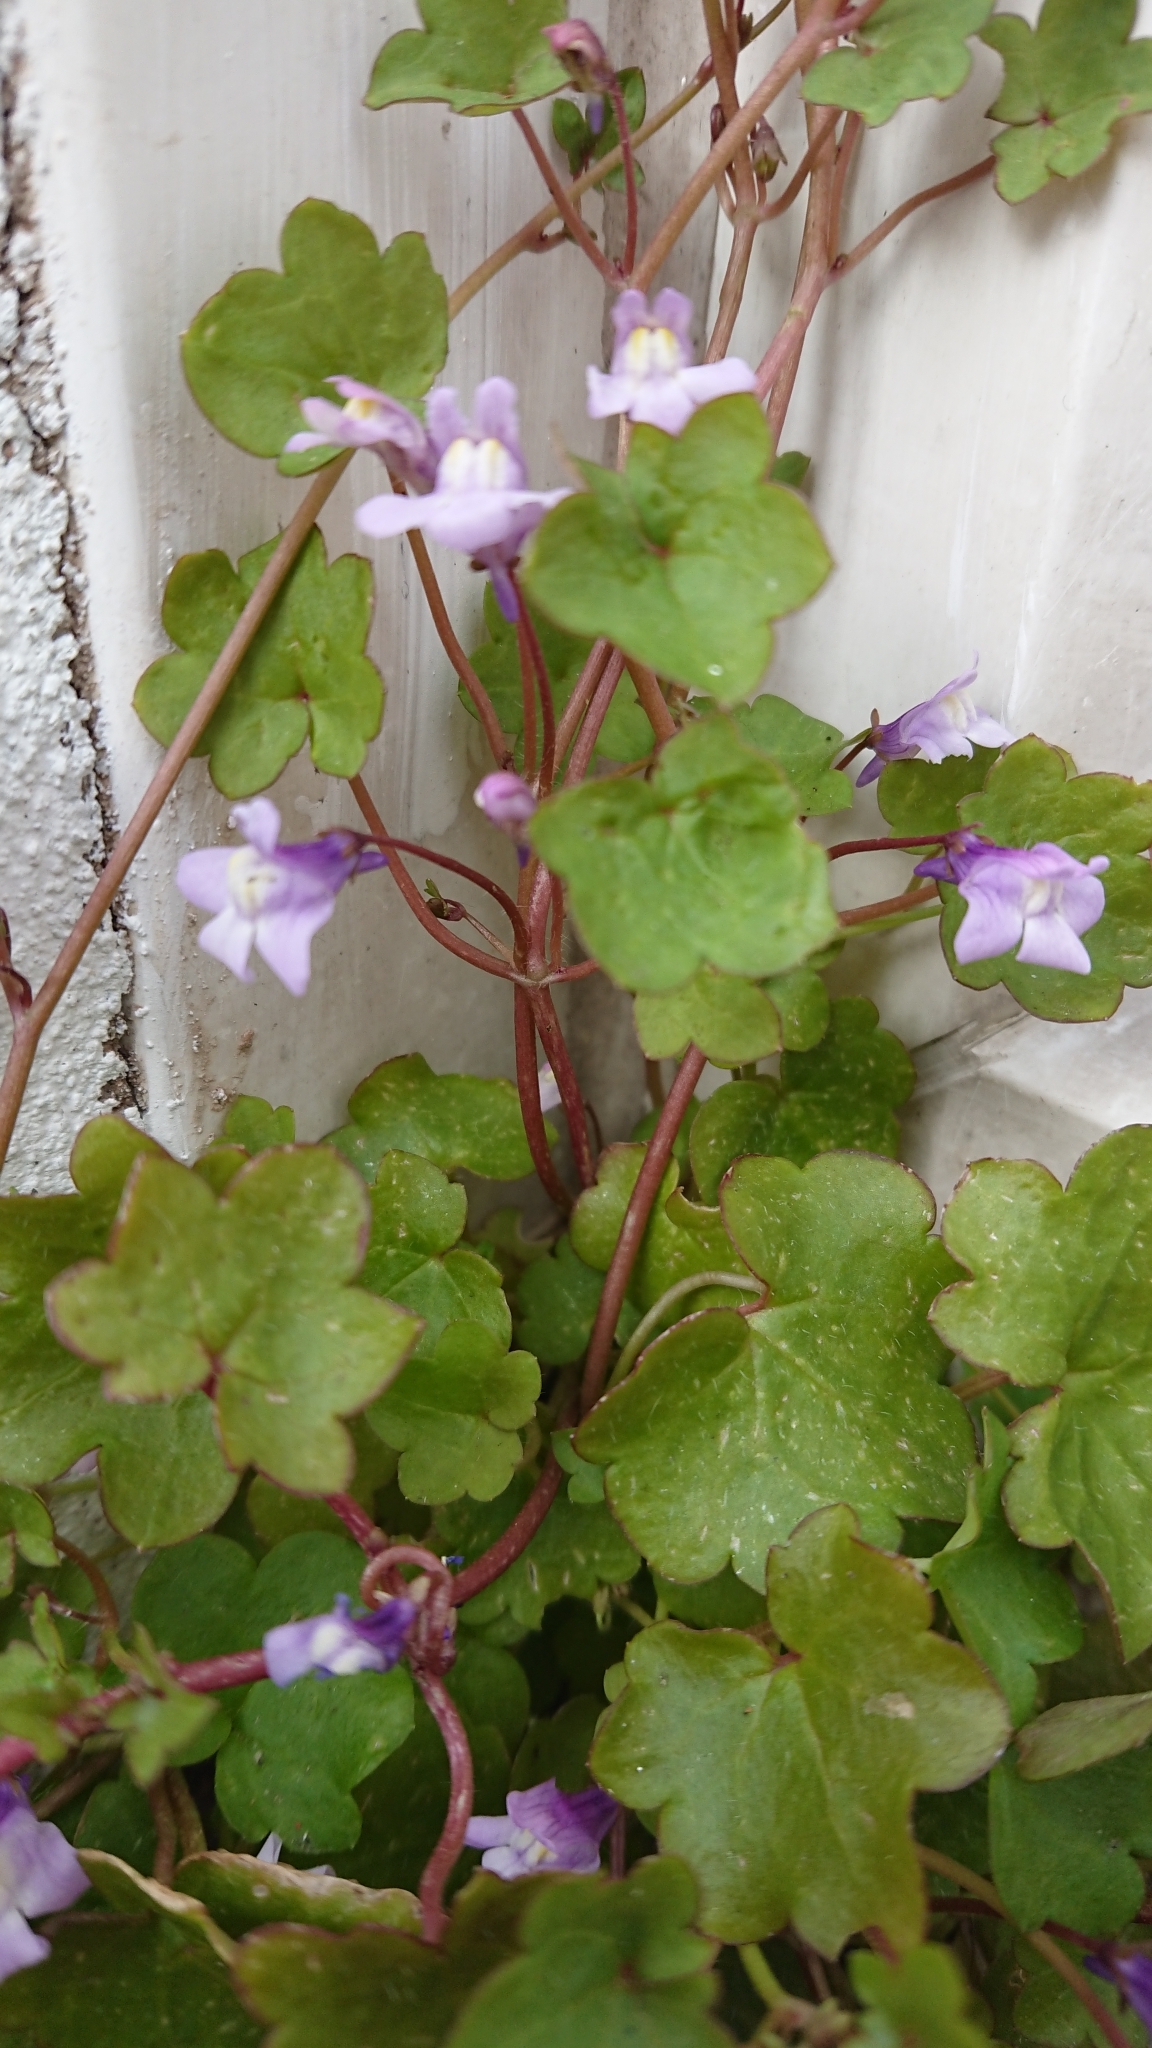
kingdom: Plantae
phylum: Tracheophyta
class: Magnoliopsida
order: Lamiales
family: Plantaginaceae
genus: Cymbalaria
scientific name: Cymbalaria muralis
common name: Ivy-leaved toadflax
